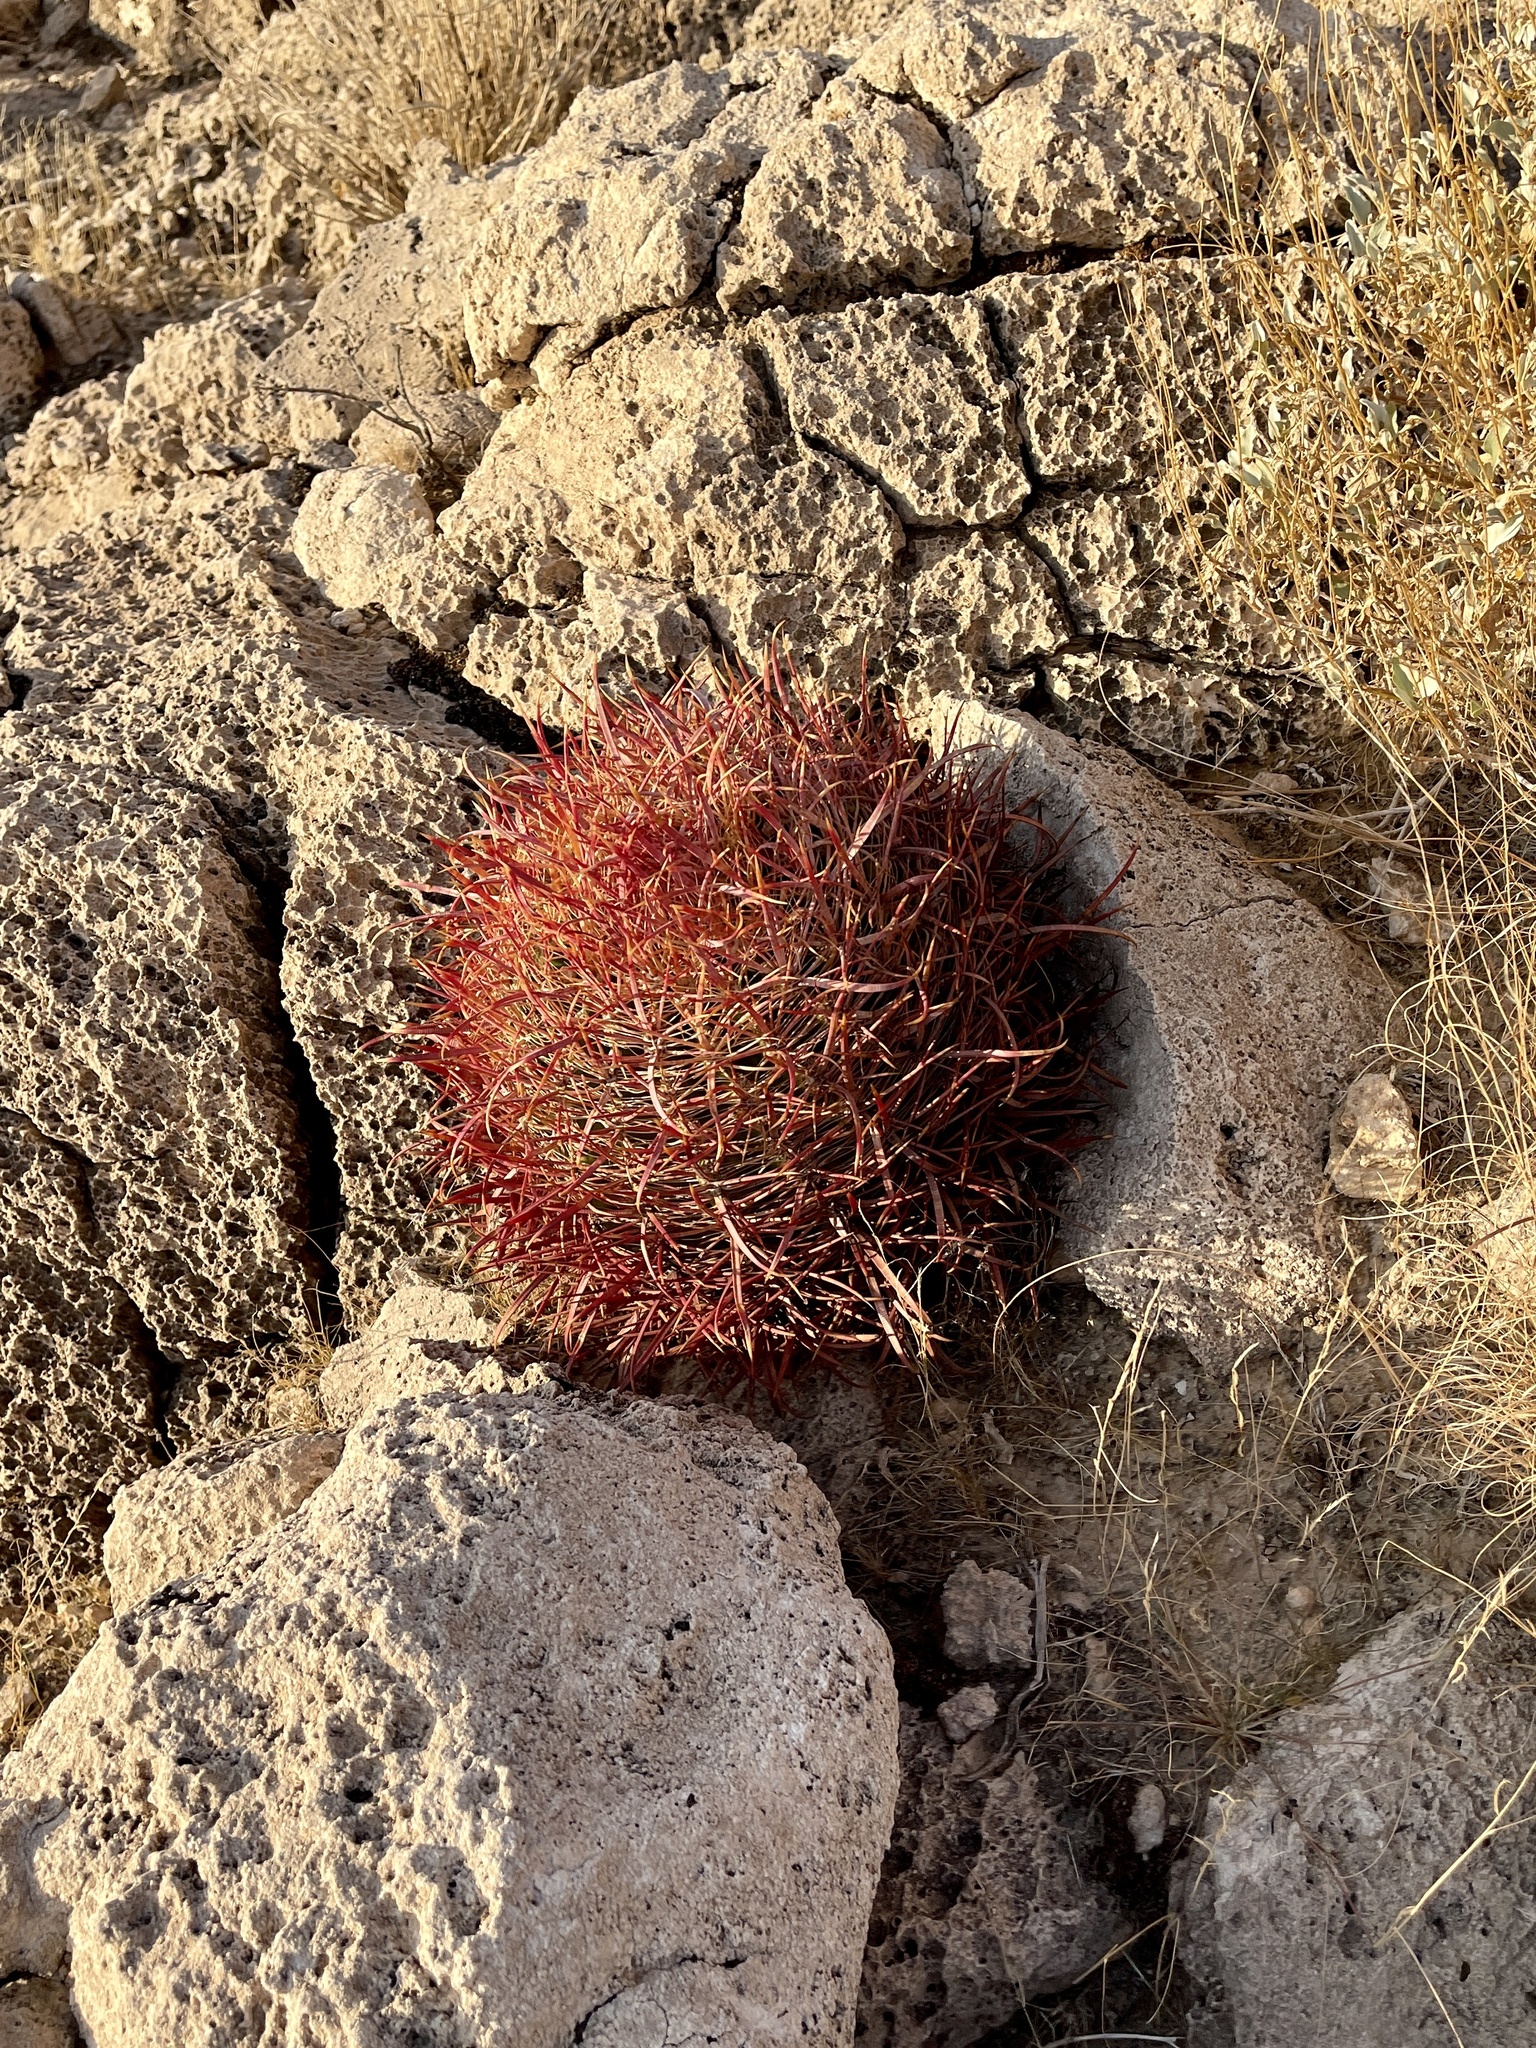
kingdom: Plantae
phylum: Tracheophyta
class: Magnoliopsida
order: Caryophyllales
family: Cactaceae
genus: Ferocactus
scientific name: Ferocactus cylindraceus
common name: California barrel cactus
